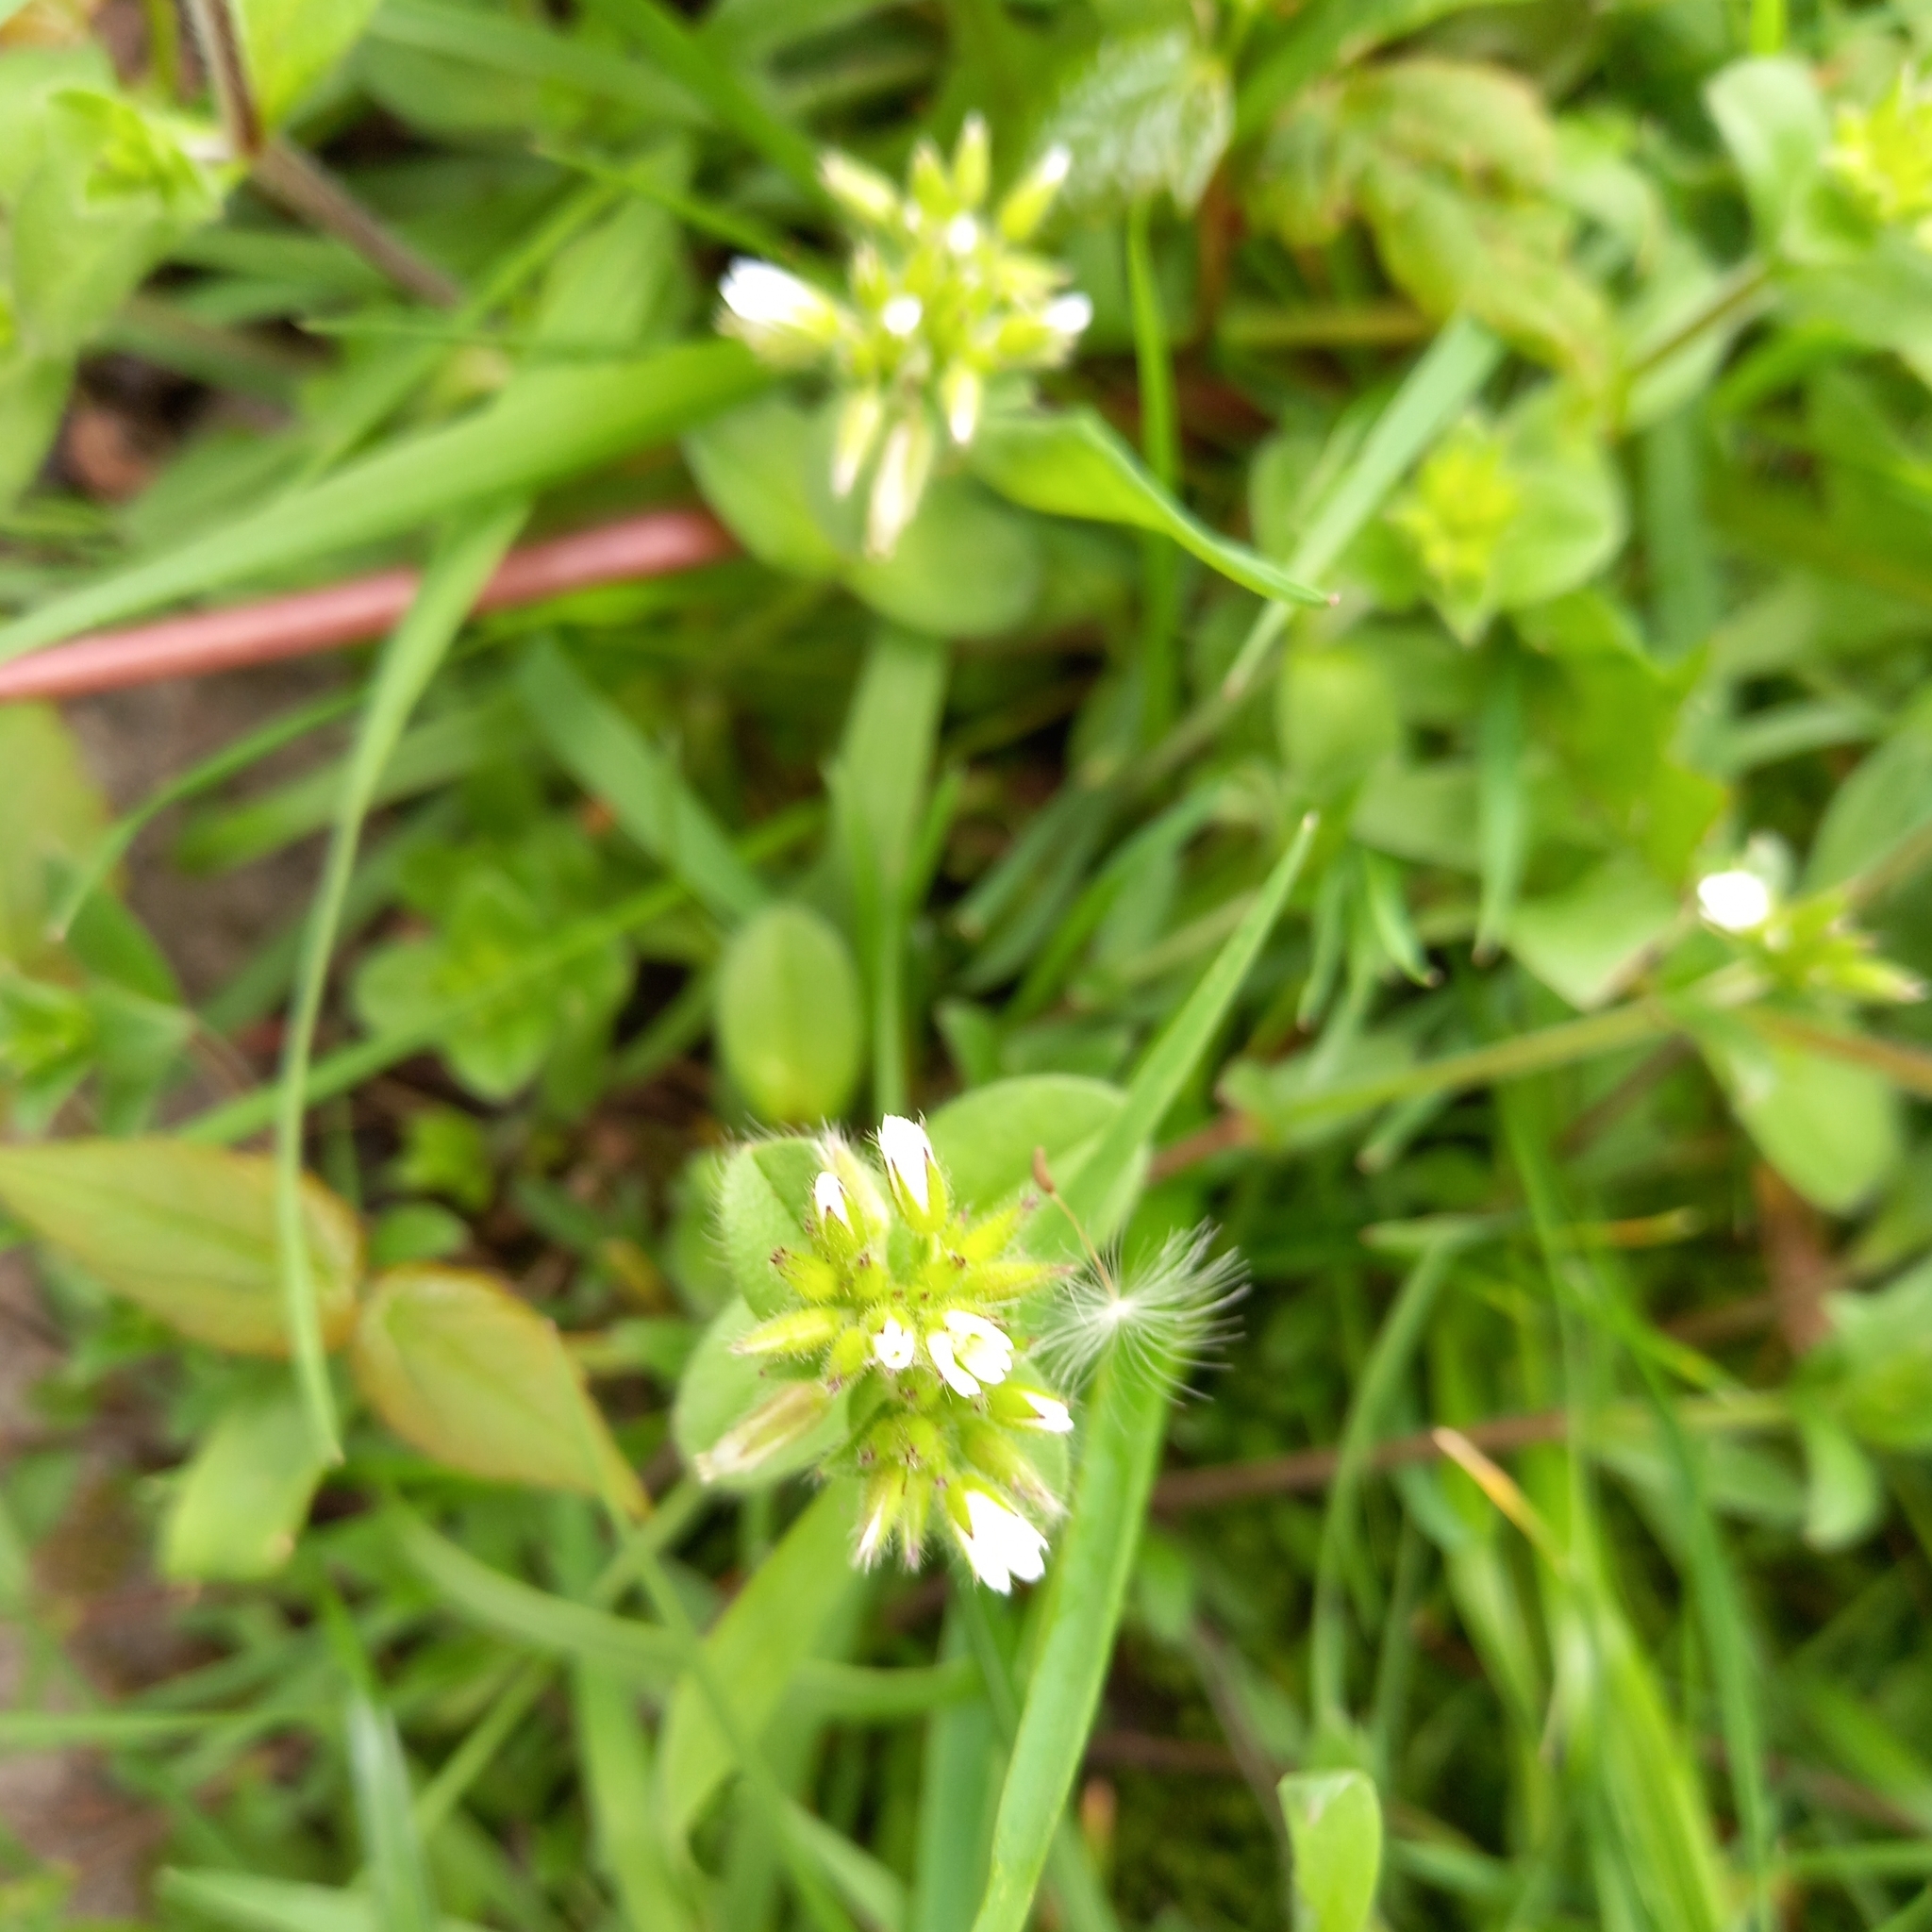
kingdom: Plantae
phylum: Tracheophyta
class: Magnoliopsida
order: Caryophyllales
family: Caryophyllaceae
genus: Cerastium
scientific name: Cerastium glomeratum
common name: Sticky chickweed
